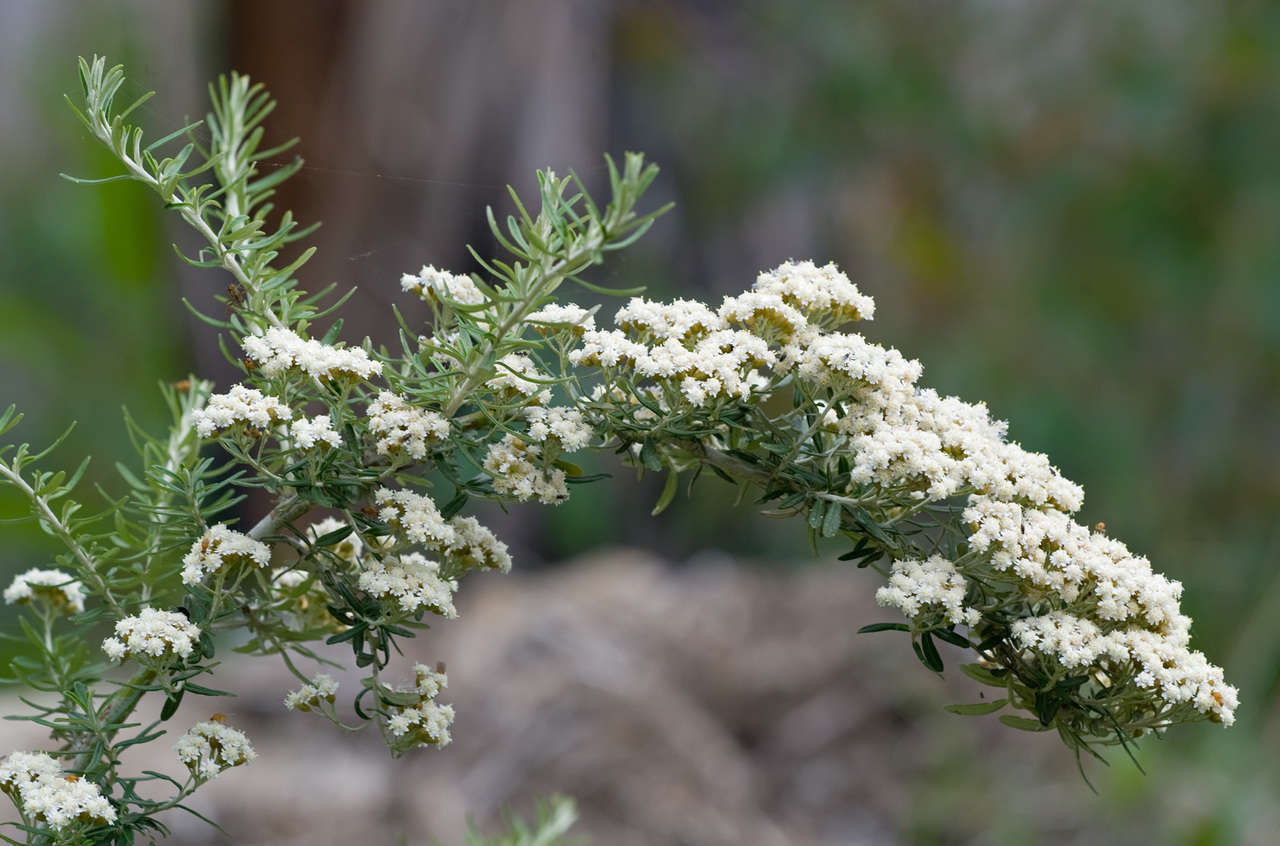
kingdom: Plantae
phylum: Tracheophyta
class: Magnoliopsida
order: Asterales
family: Asteraceae
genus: Ozothamnus
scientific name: Ozothamnus secundiflorus
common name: Cascade everlasting
